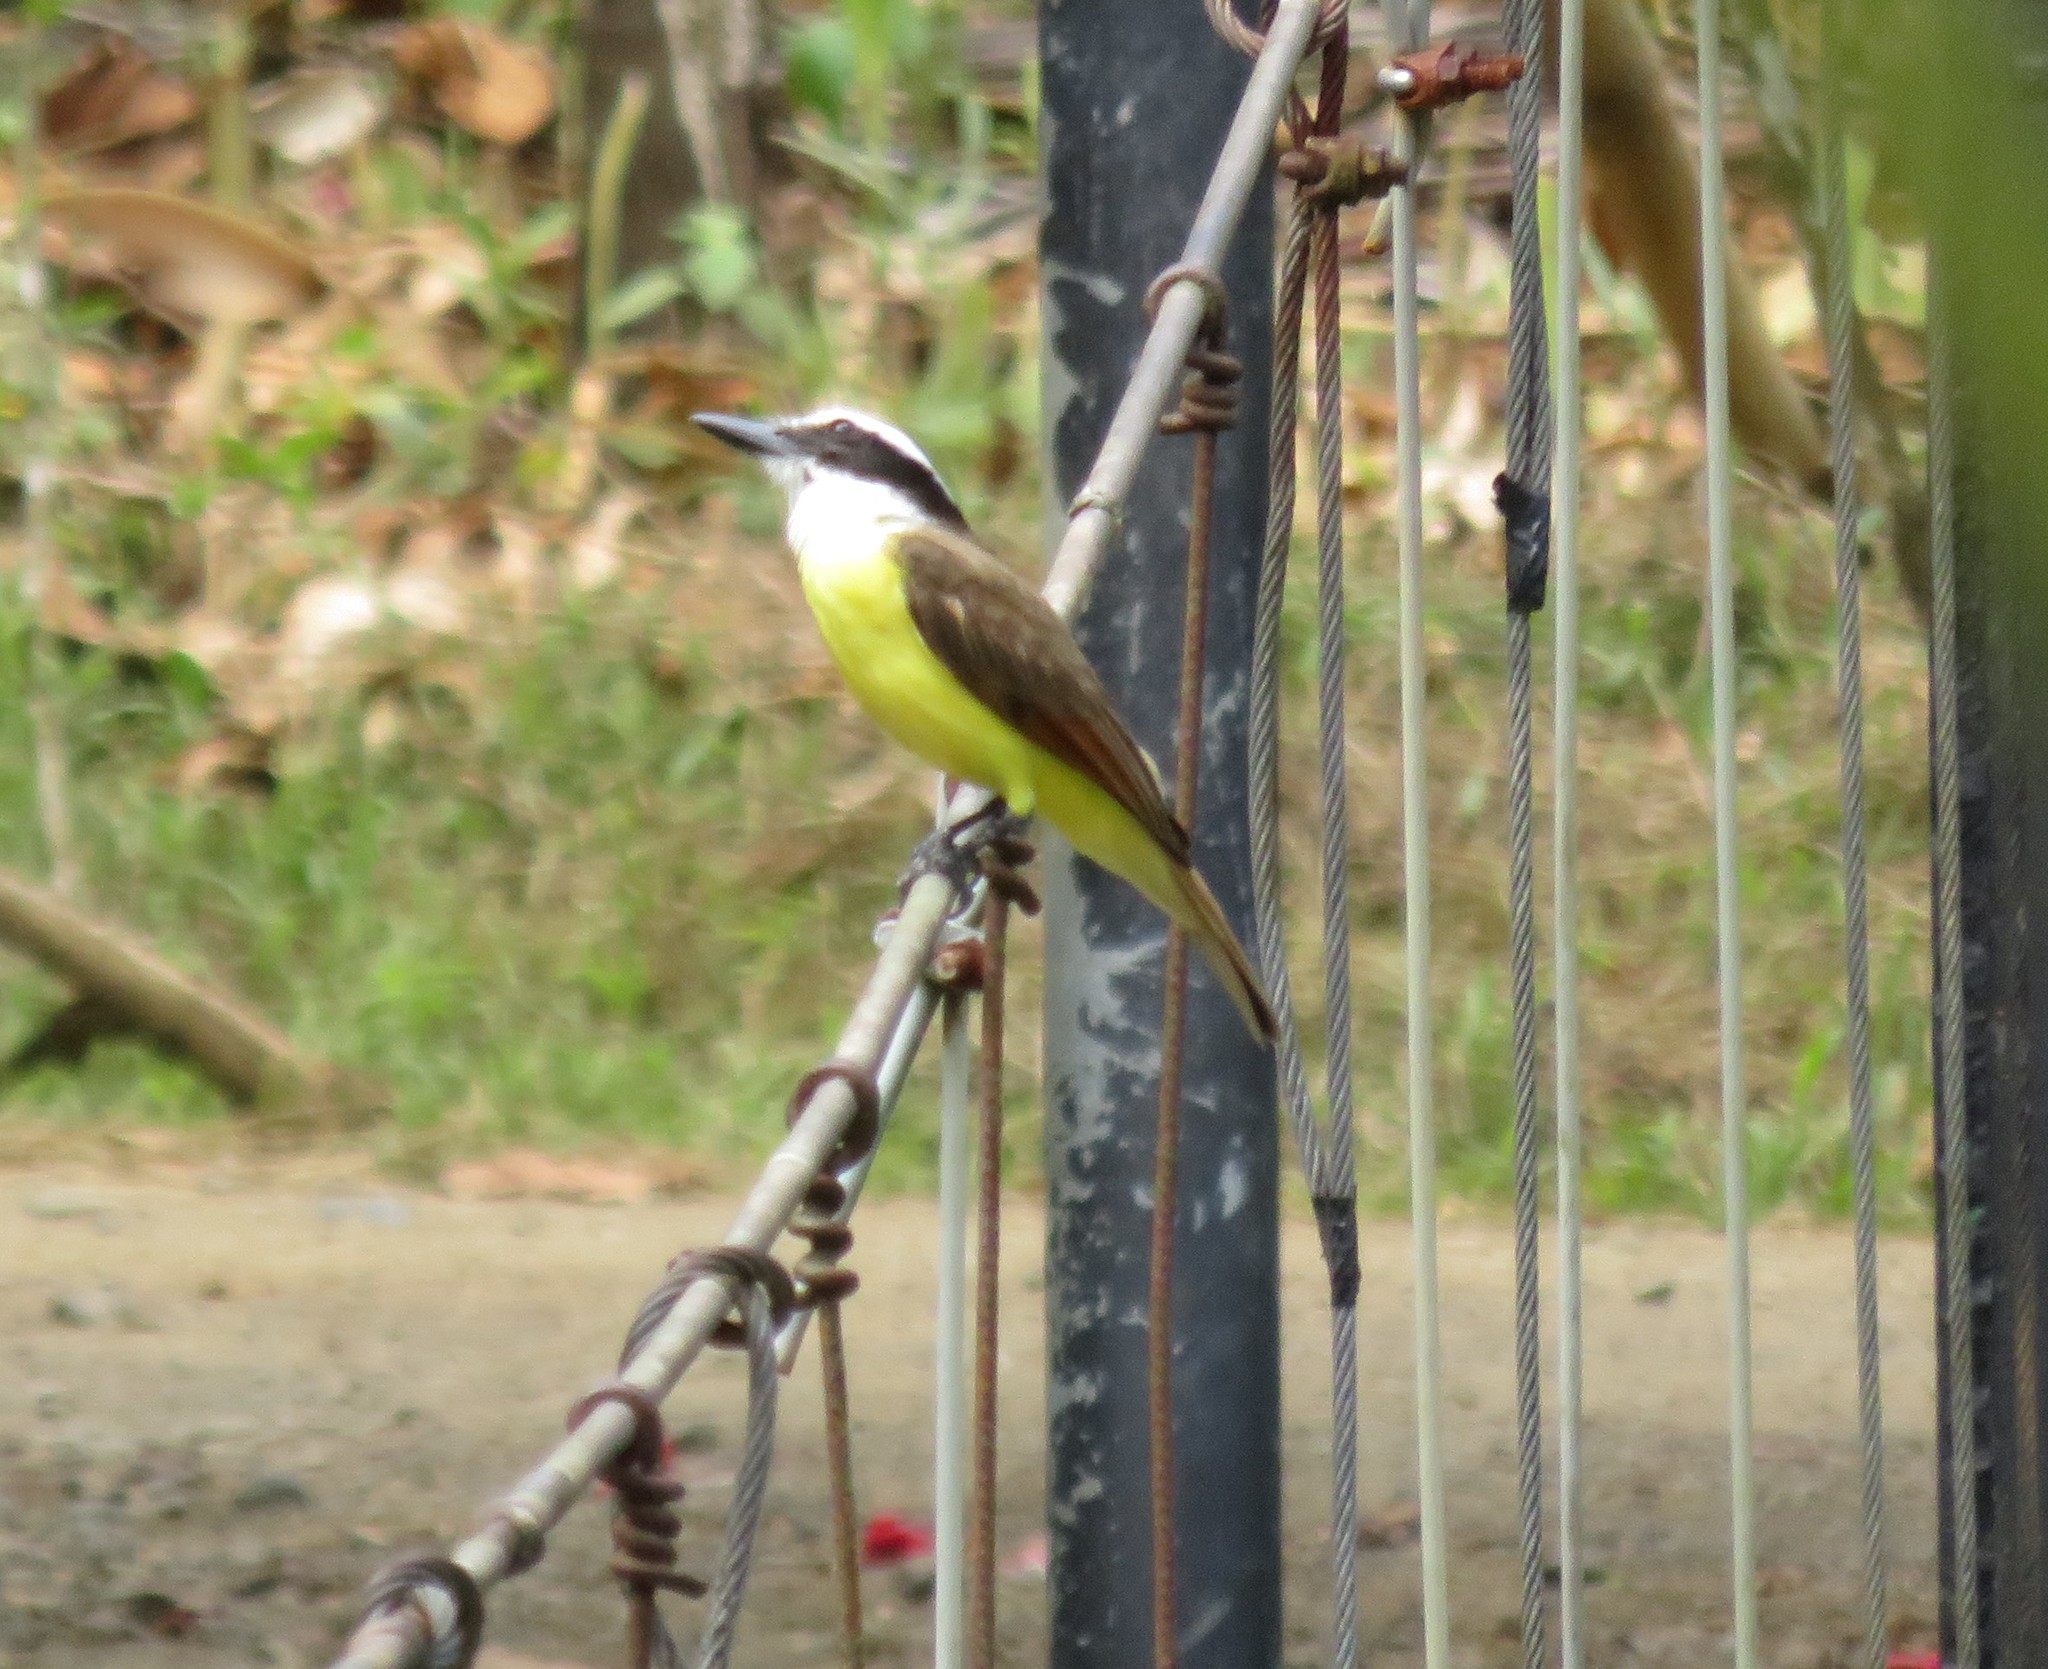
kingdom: Animalia
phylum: Chordata
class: Aves
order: Passeriformes
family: Tyrannidae
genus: Pitangus
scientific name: Pitangus sulphuratus
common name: Great kiskadee
